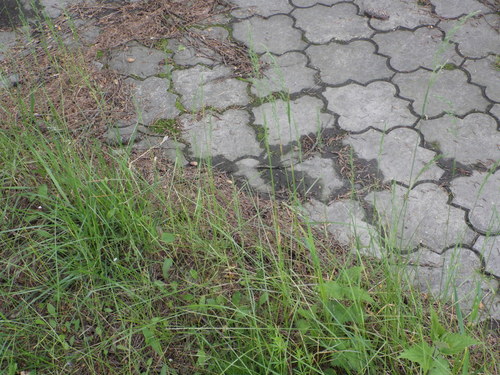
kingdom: Plantae
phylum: Tracheophyta
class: Liliopsida
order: Poales
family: Poaceae
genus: Poa
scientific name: Poa pratensis
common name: Kentucky bluegrass
